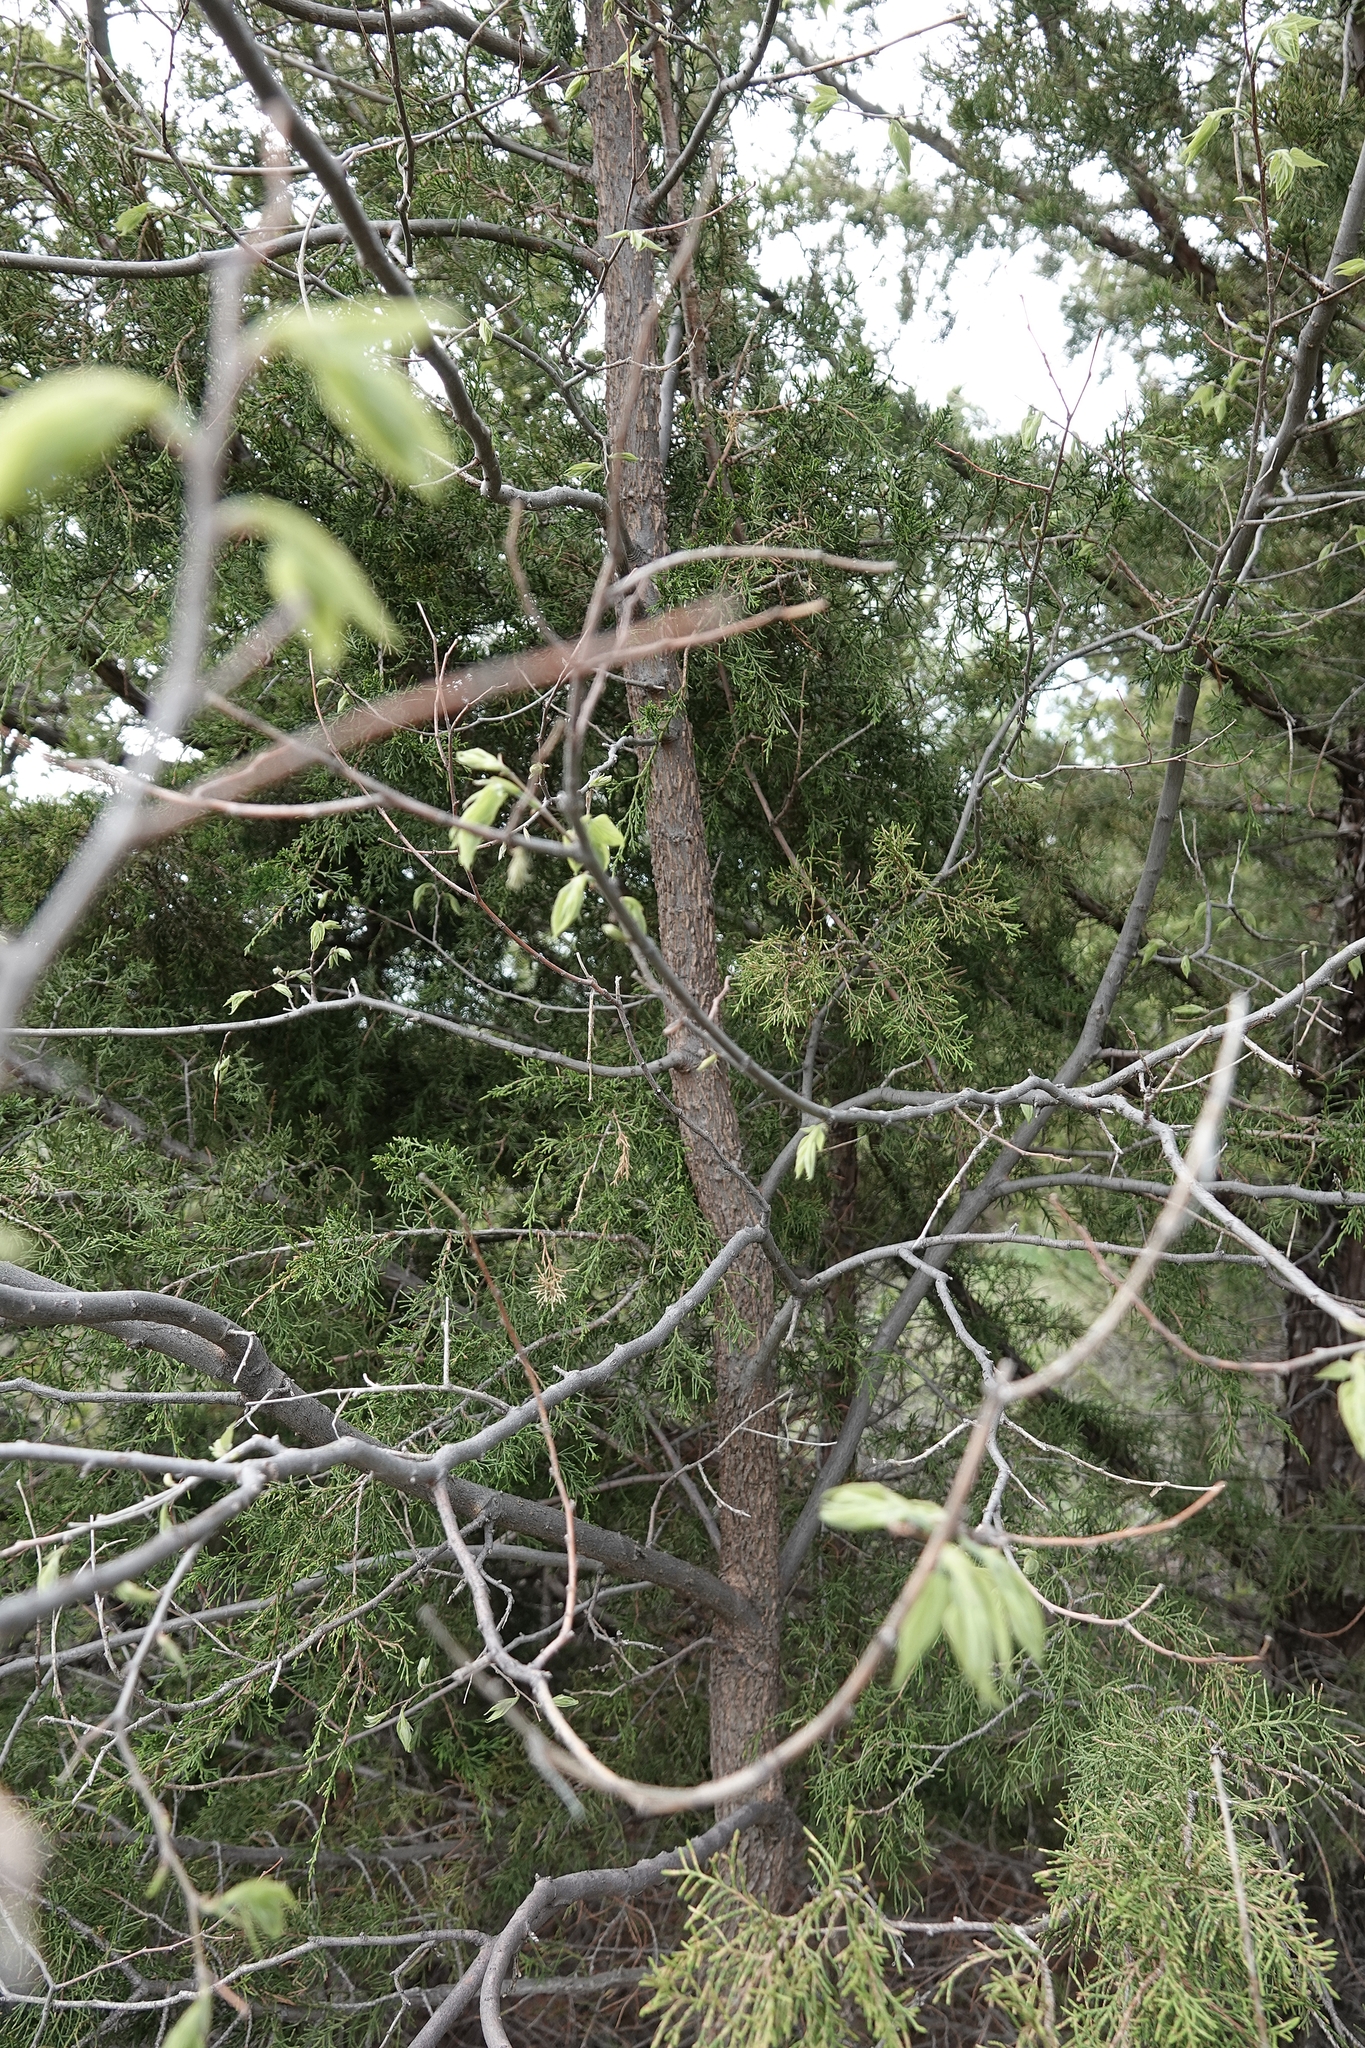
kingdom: Plantae
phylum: Tracheophyta
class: Magnoliopsida
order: Rosales
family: Cannabaceae
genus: Celtis
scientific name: Celtis occidentalis
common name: Common hackberry
